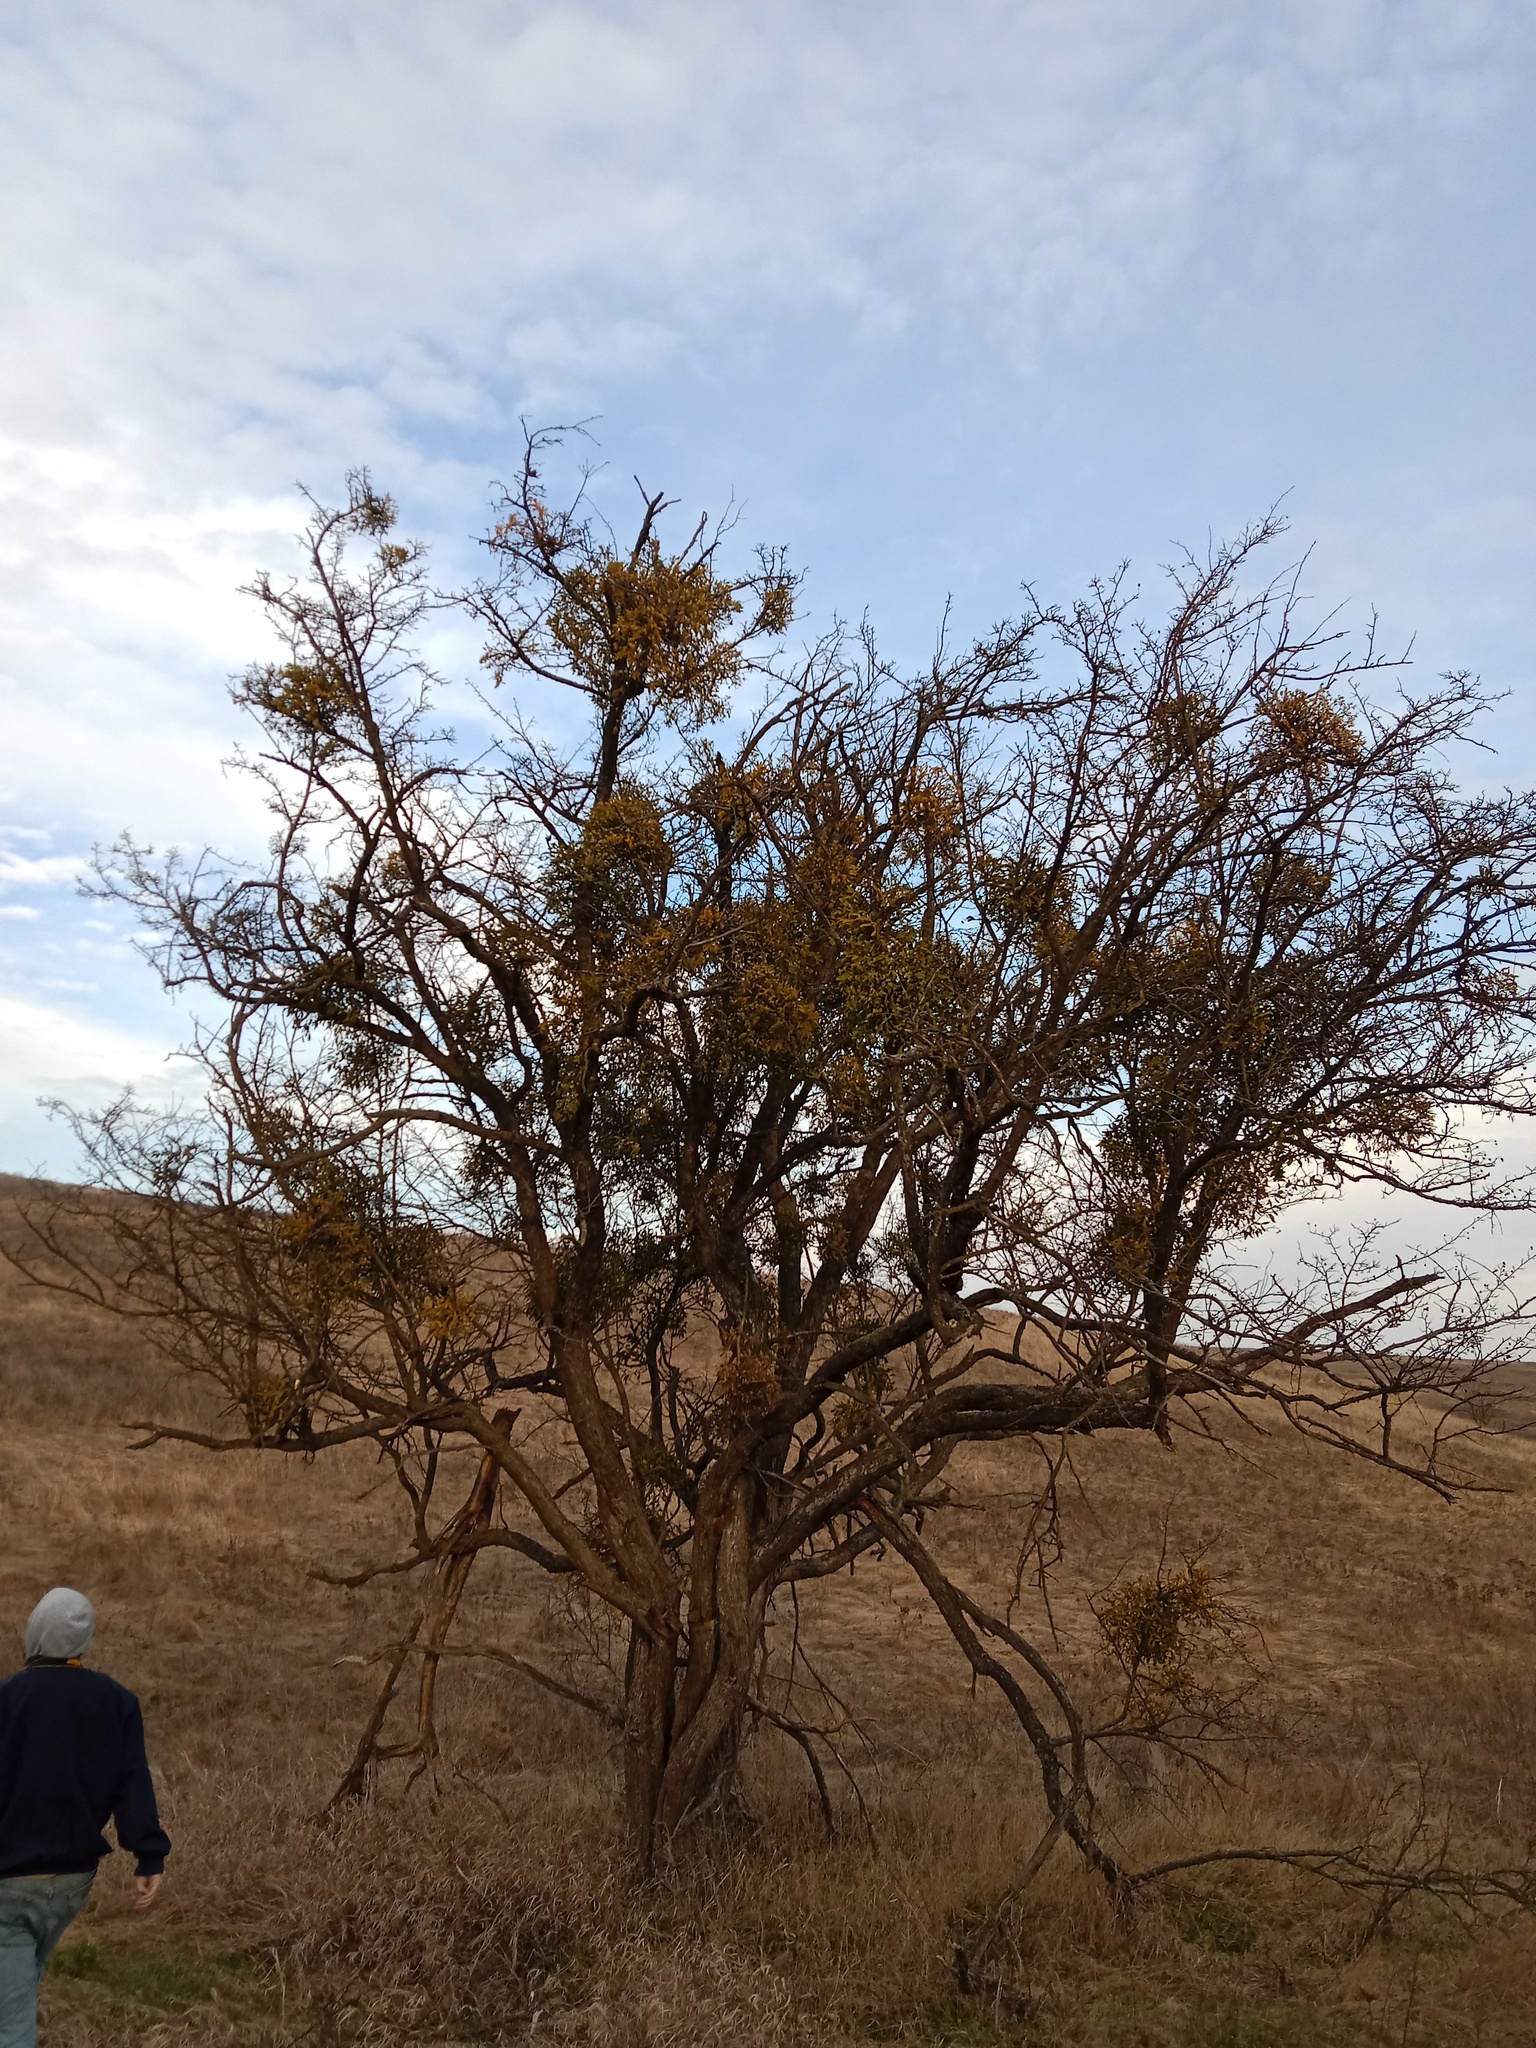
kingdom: Plantae
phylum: Tracheophyta
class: Magnoliopsida
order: Santalales
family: Viscaceae
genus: Viscum
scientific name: Viscum album
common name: Mistletoe
